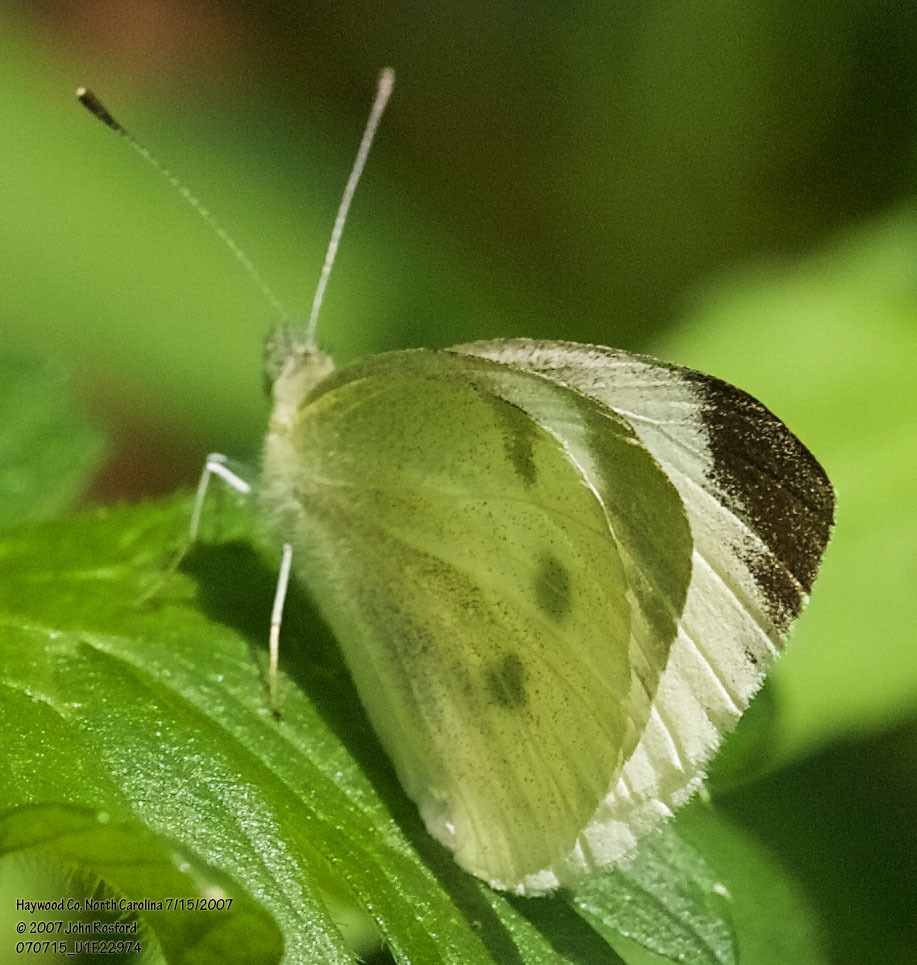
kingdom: Animalia
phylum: Arthropoda
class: Insecta
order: Lepidoptera
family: Pieridae
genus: Pieris
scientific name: Pieris rapae
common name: Small white
